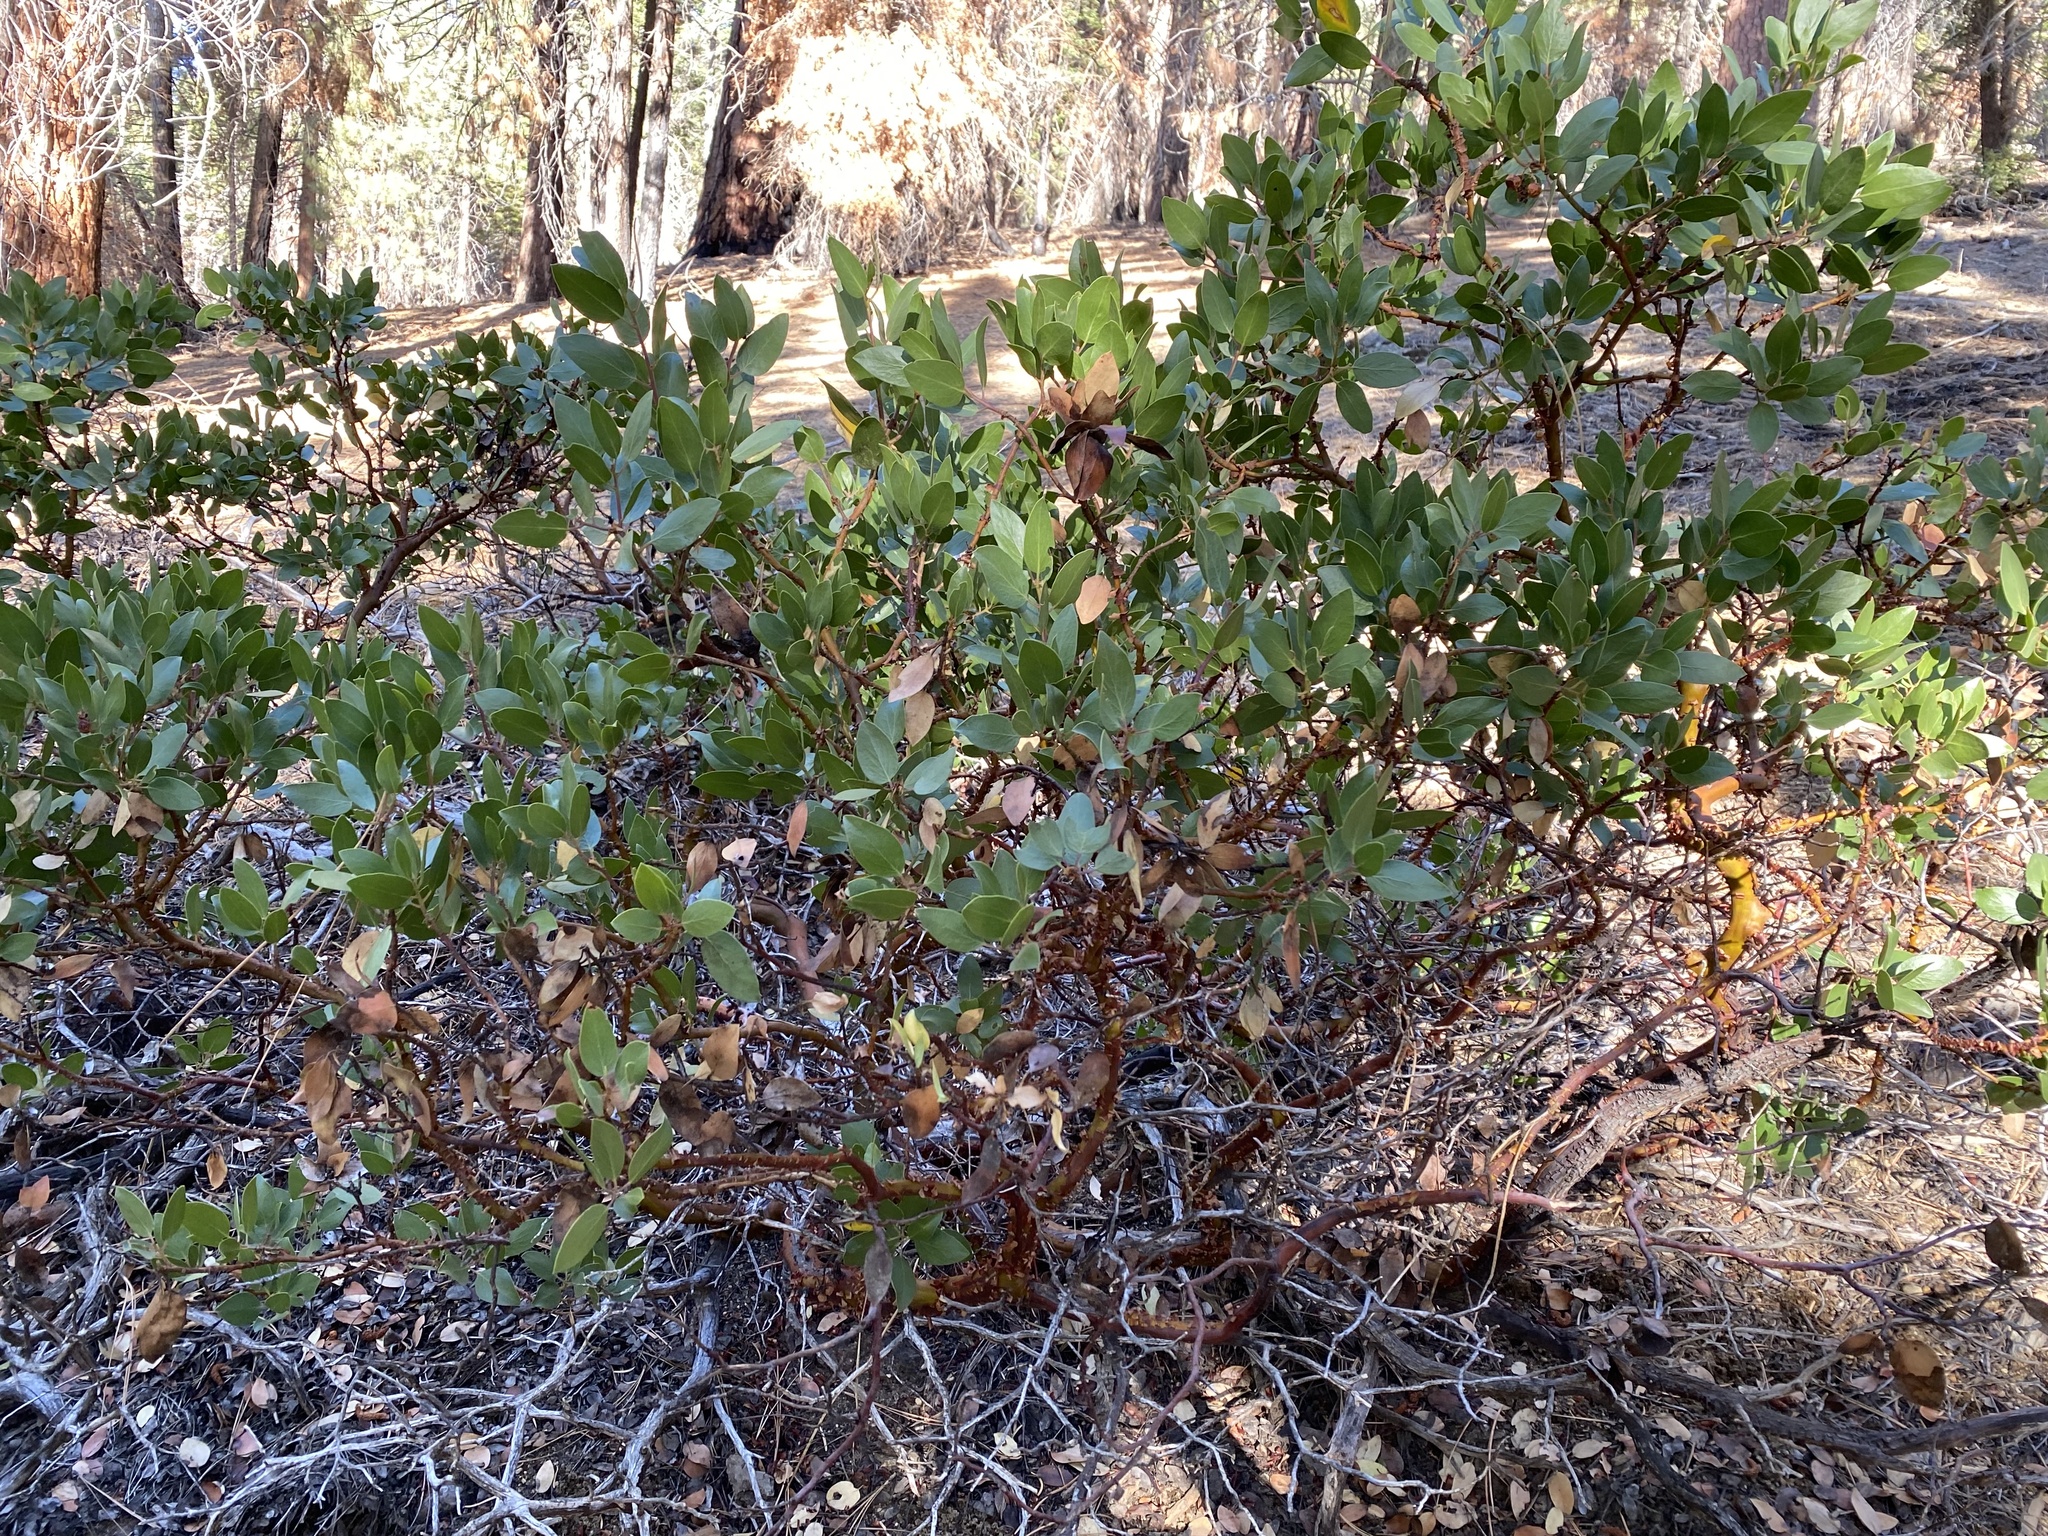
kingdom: Plantae
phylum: Tracheophyta
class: Magnoliopsida
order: Ericales
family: Ericaceae
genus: Arctostaphylos
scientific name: Arctostaphylos patula
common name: Green-leaf manzanita
